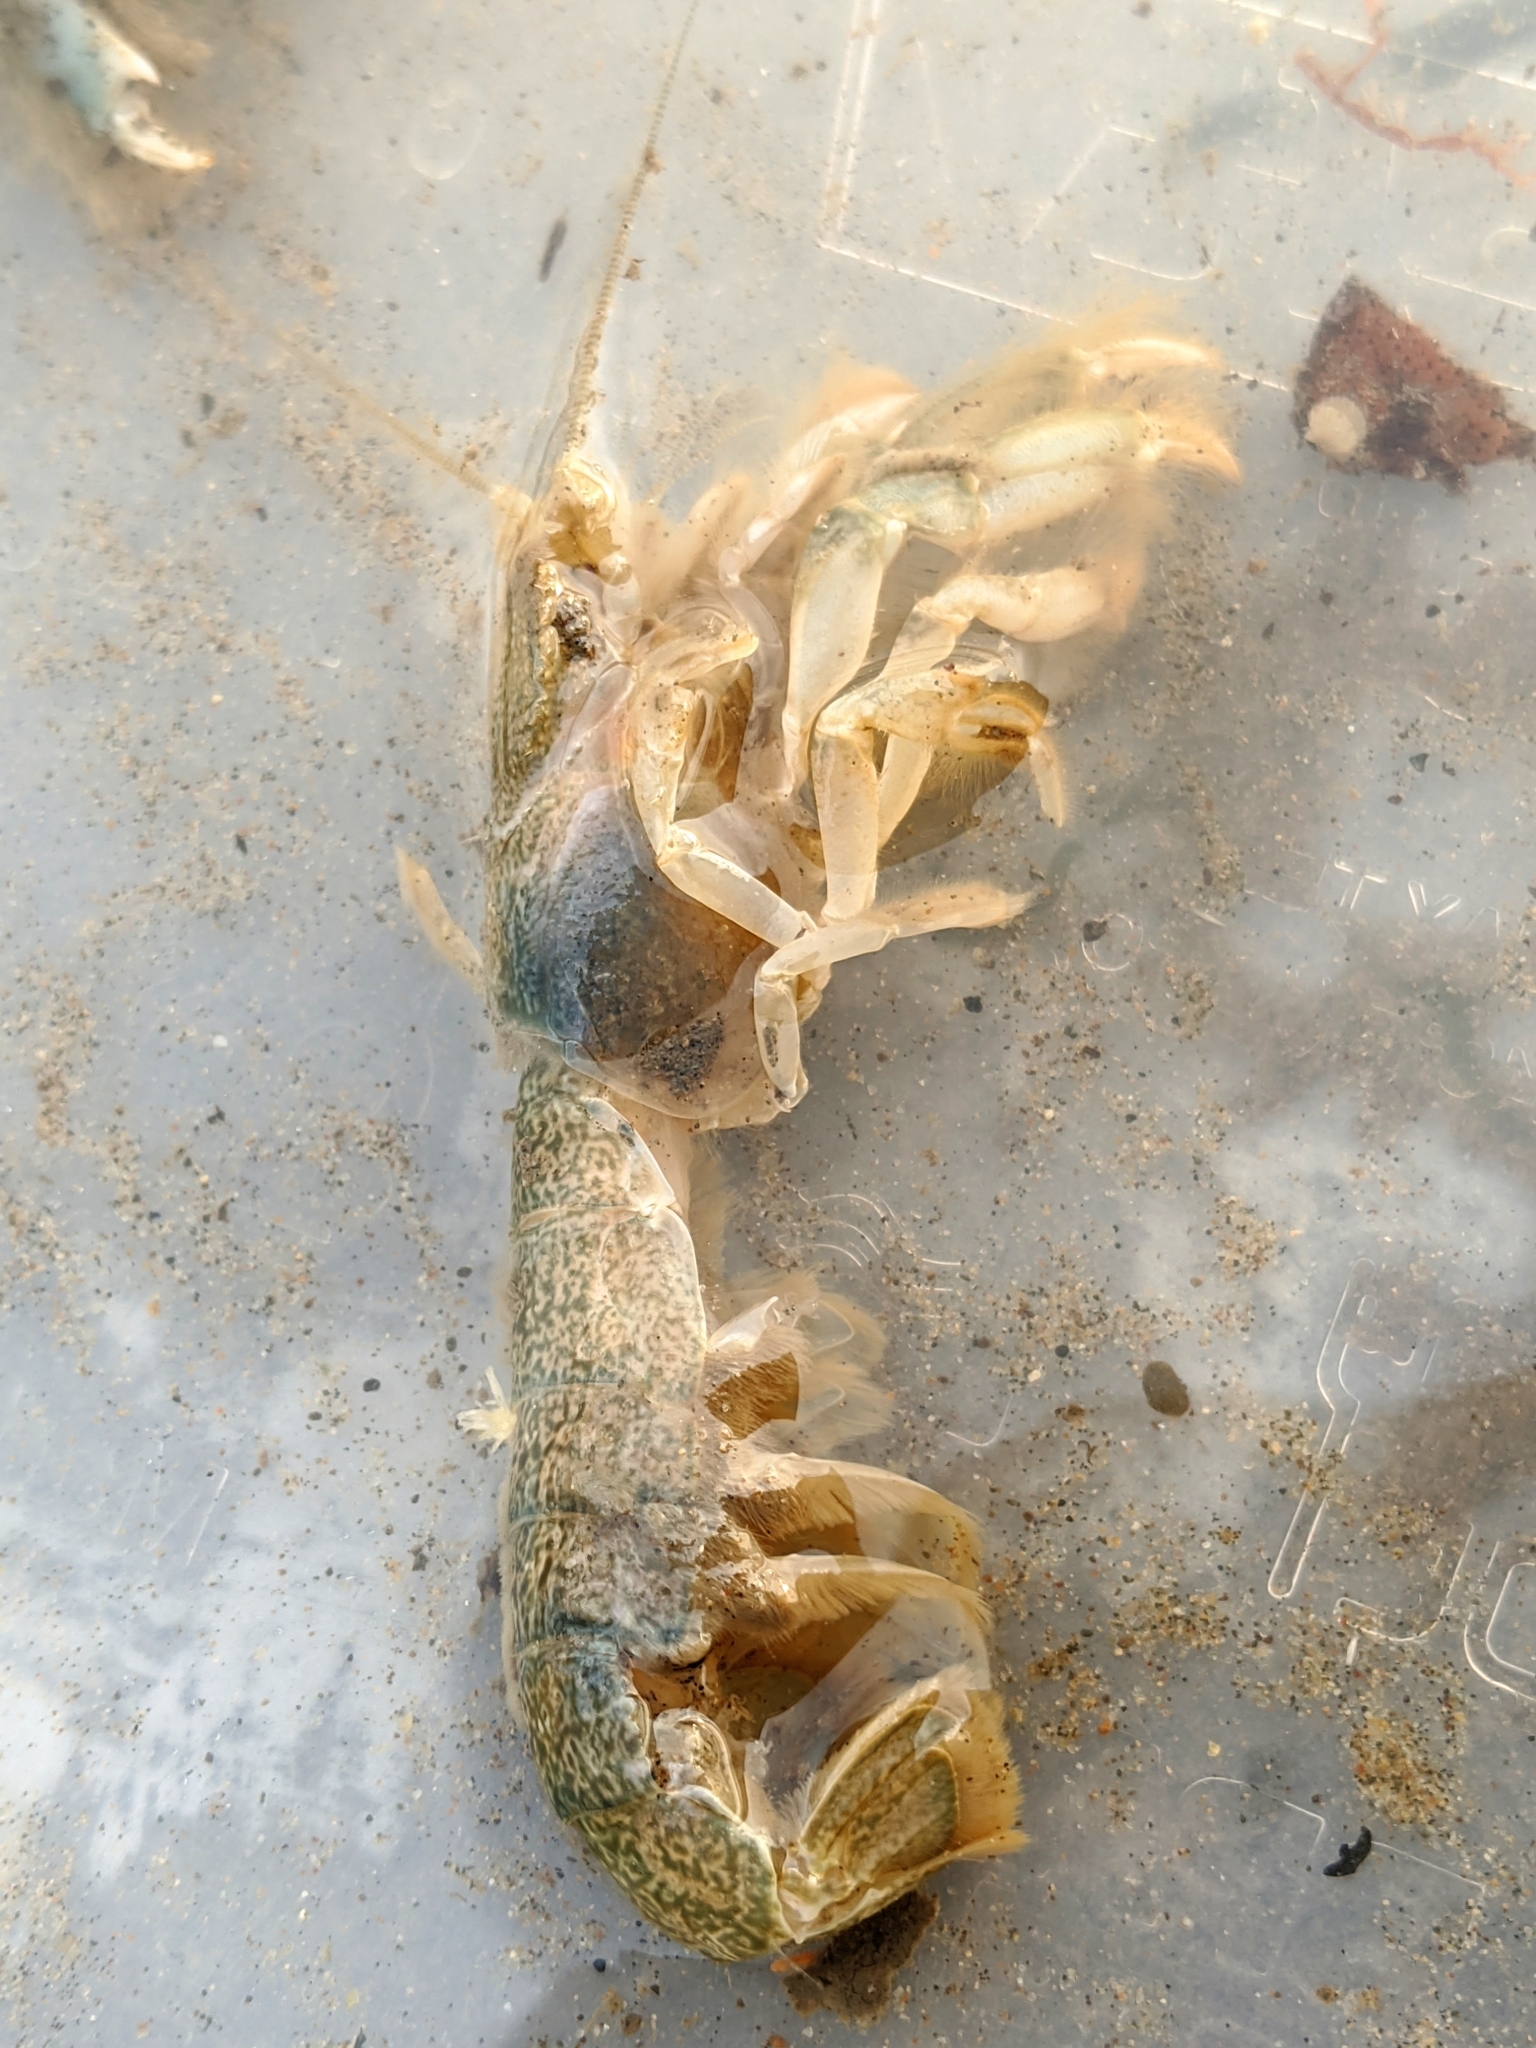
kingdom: Animalia
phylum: Arthropoda
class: Malacostraca
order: Decapoda
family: Upogebiidae
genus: Upogebia
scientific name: Upogebia pugettensis
